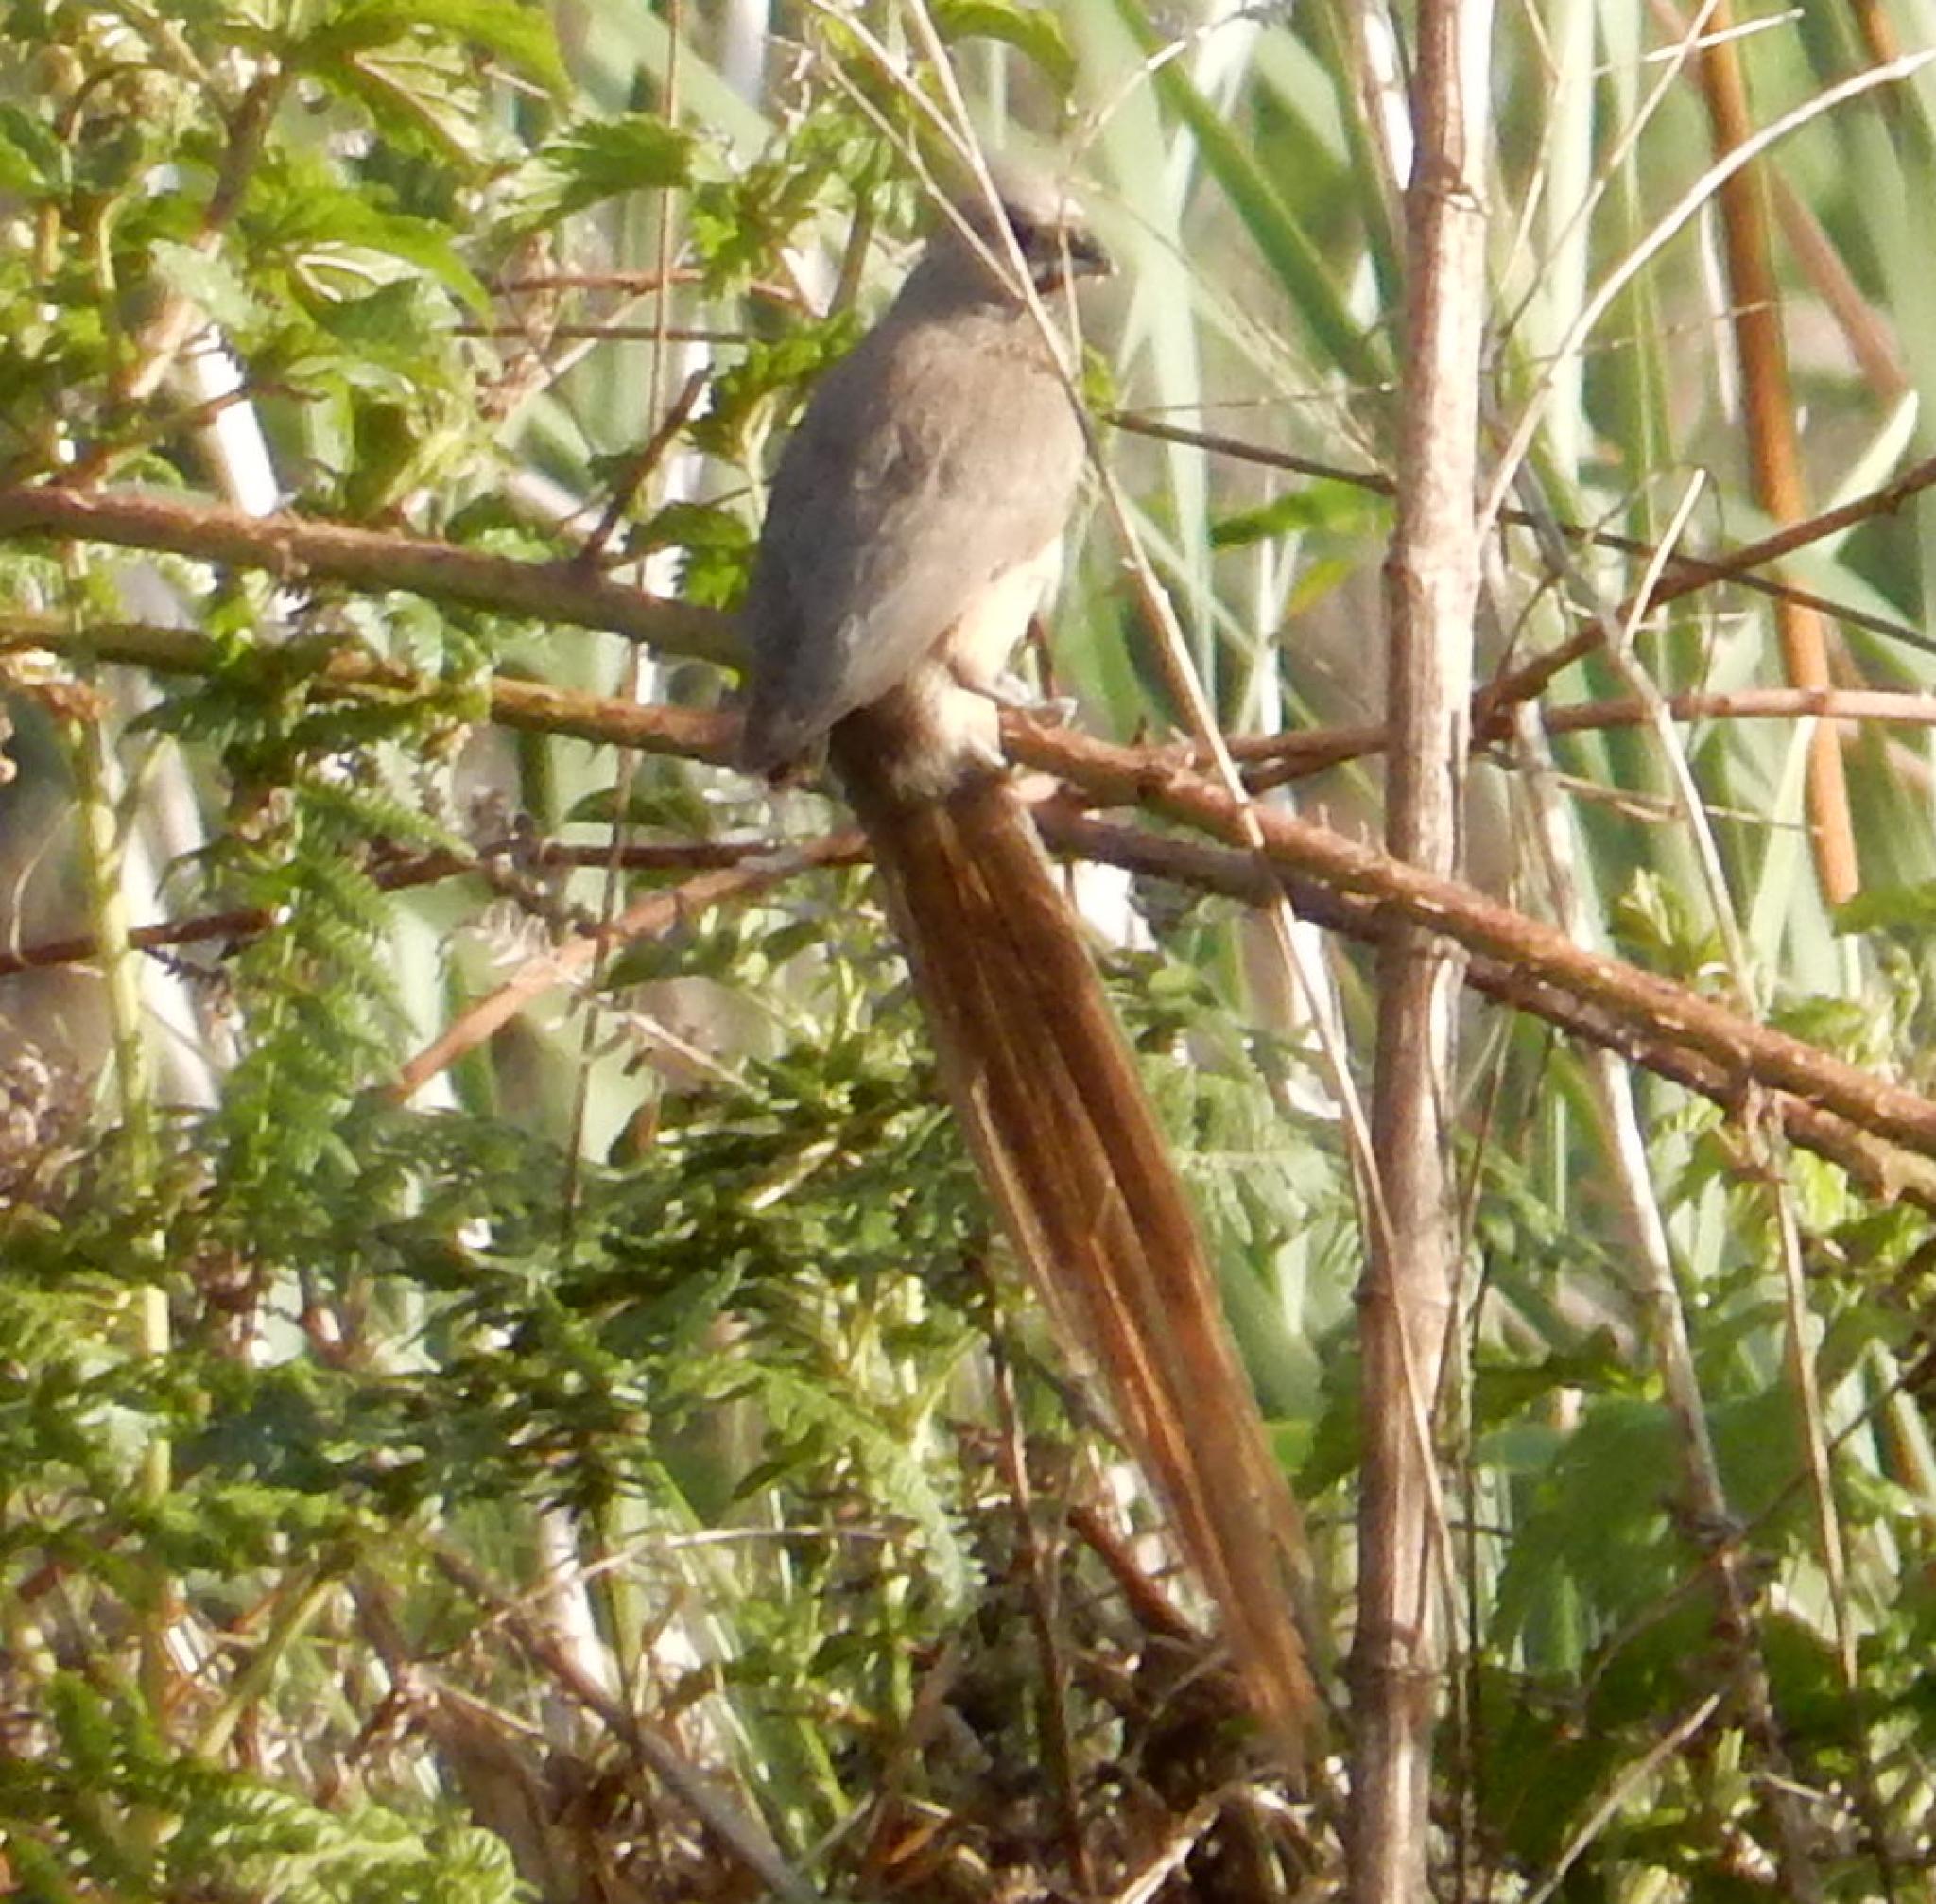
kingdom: Animalia
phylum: Chordata
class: Aves
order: Coliiformes
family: Coliidae
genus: Colius
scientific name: Colius striatus
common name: Speckled mousebird
